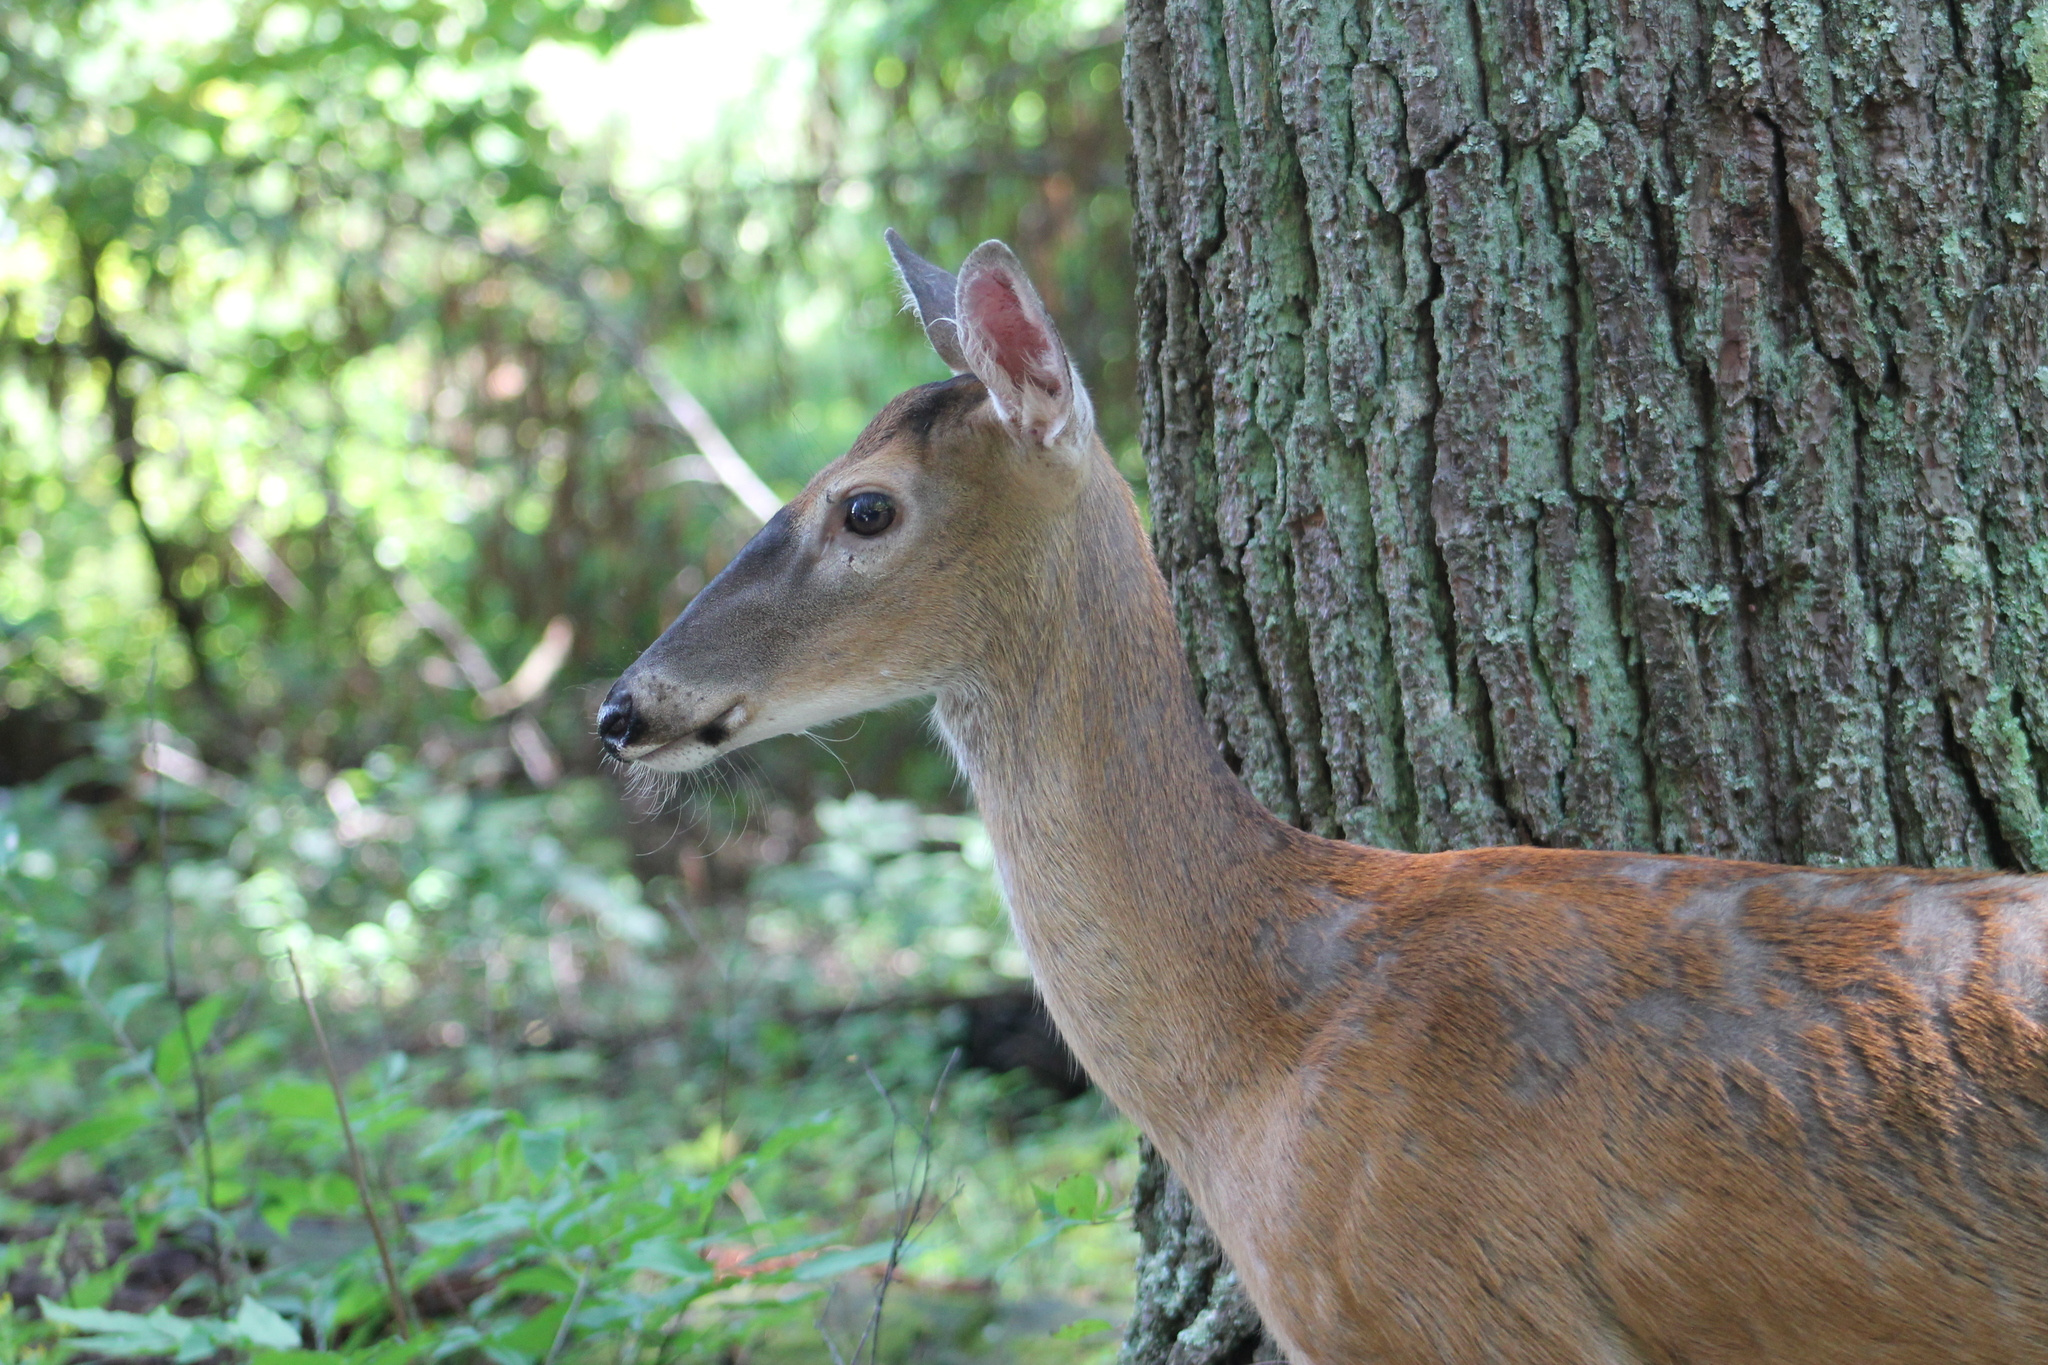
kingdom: Animalia
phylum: Chordata
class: Mammalia
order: Artiodactyla
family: Cervidae
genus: Odocoileus
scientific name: Odocoileus virginianus
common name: White-tailed deer
